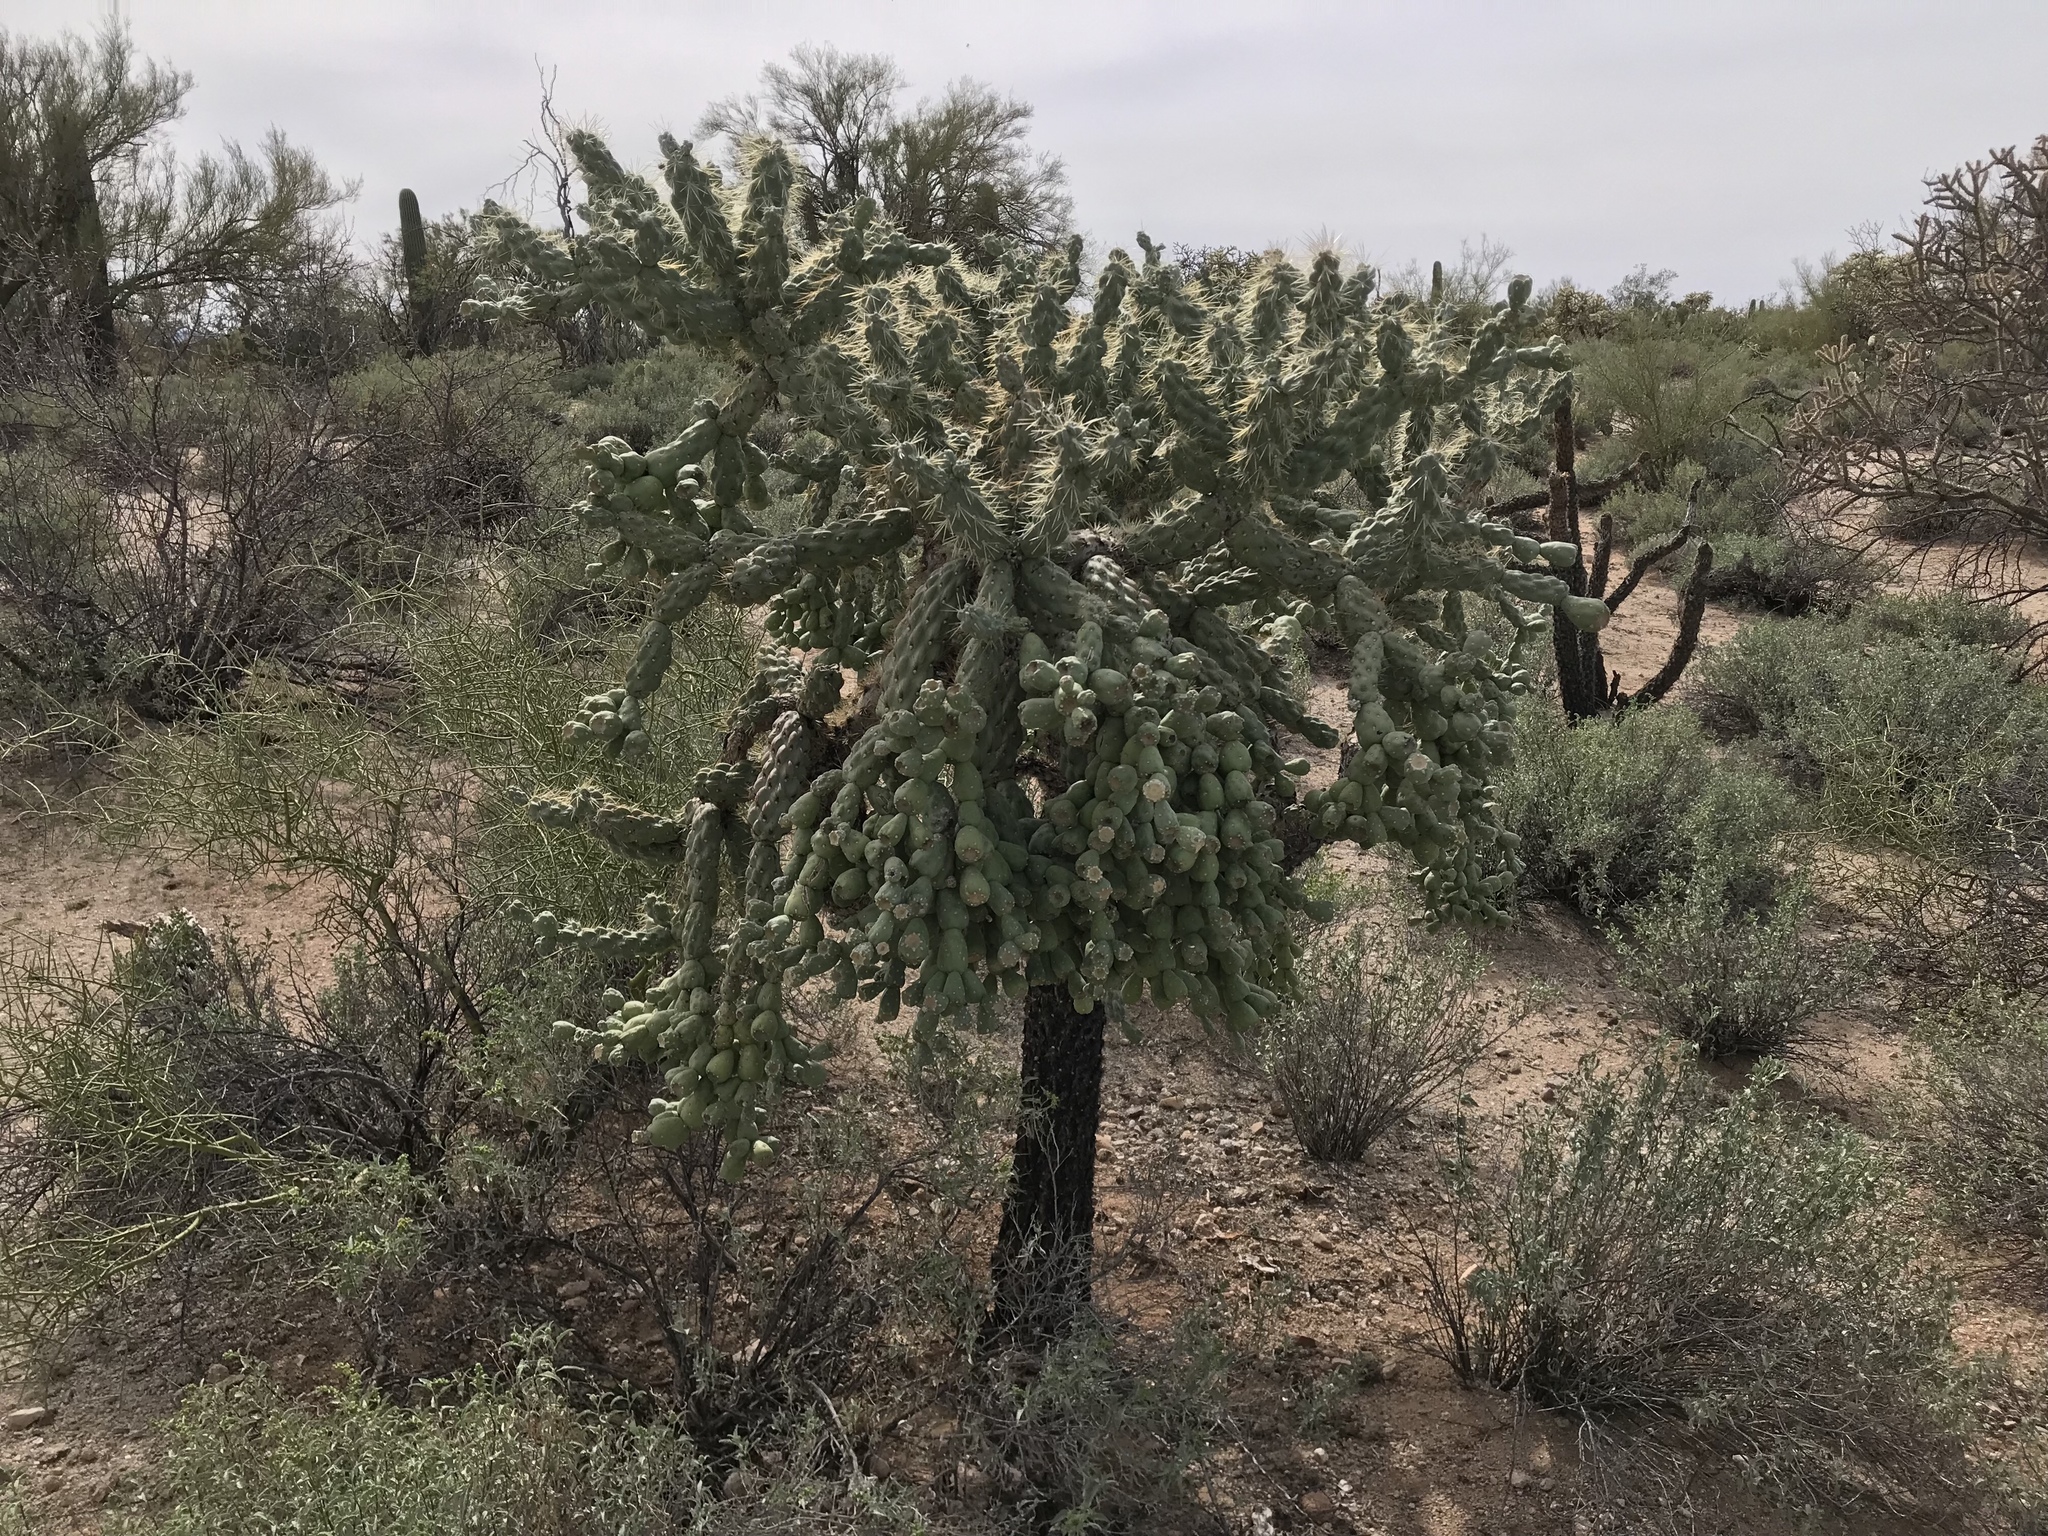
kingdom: Plantae
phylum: Tracheophyta
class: Magnoliopsida
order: Caryophyllales
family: Cactaceae
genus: Cylindropuntia
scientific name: Cylindropuntia fulgida
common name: Jumping cholla
